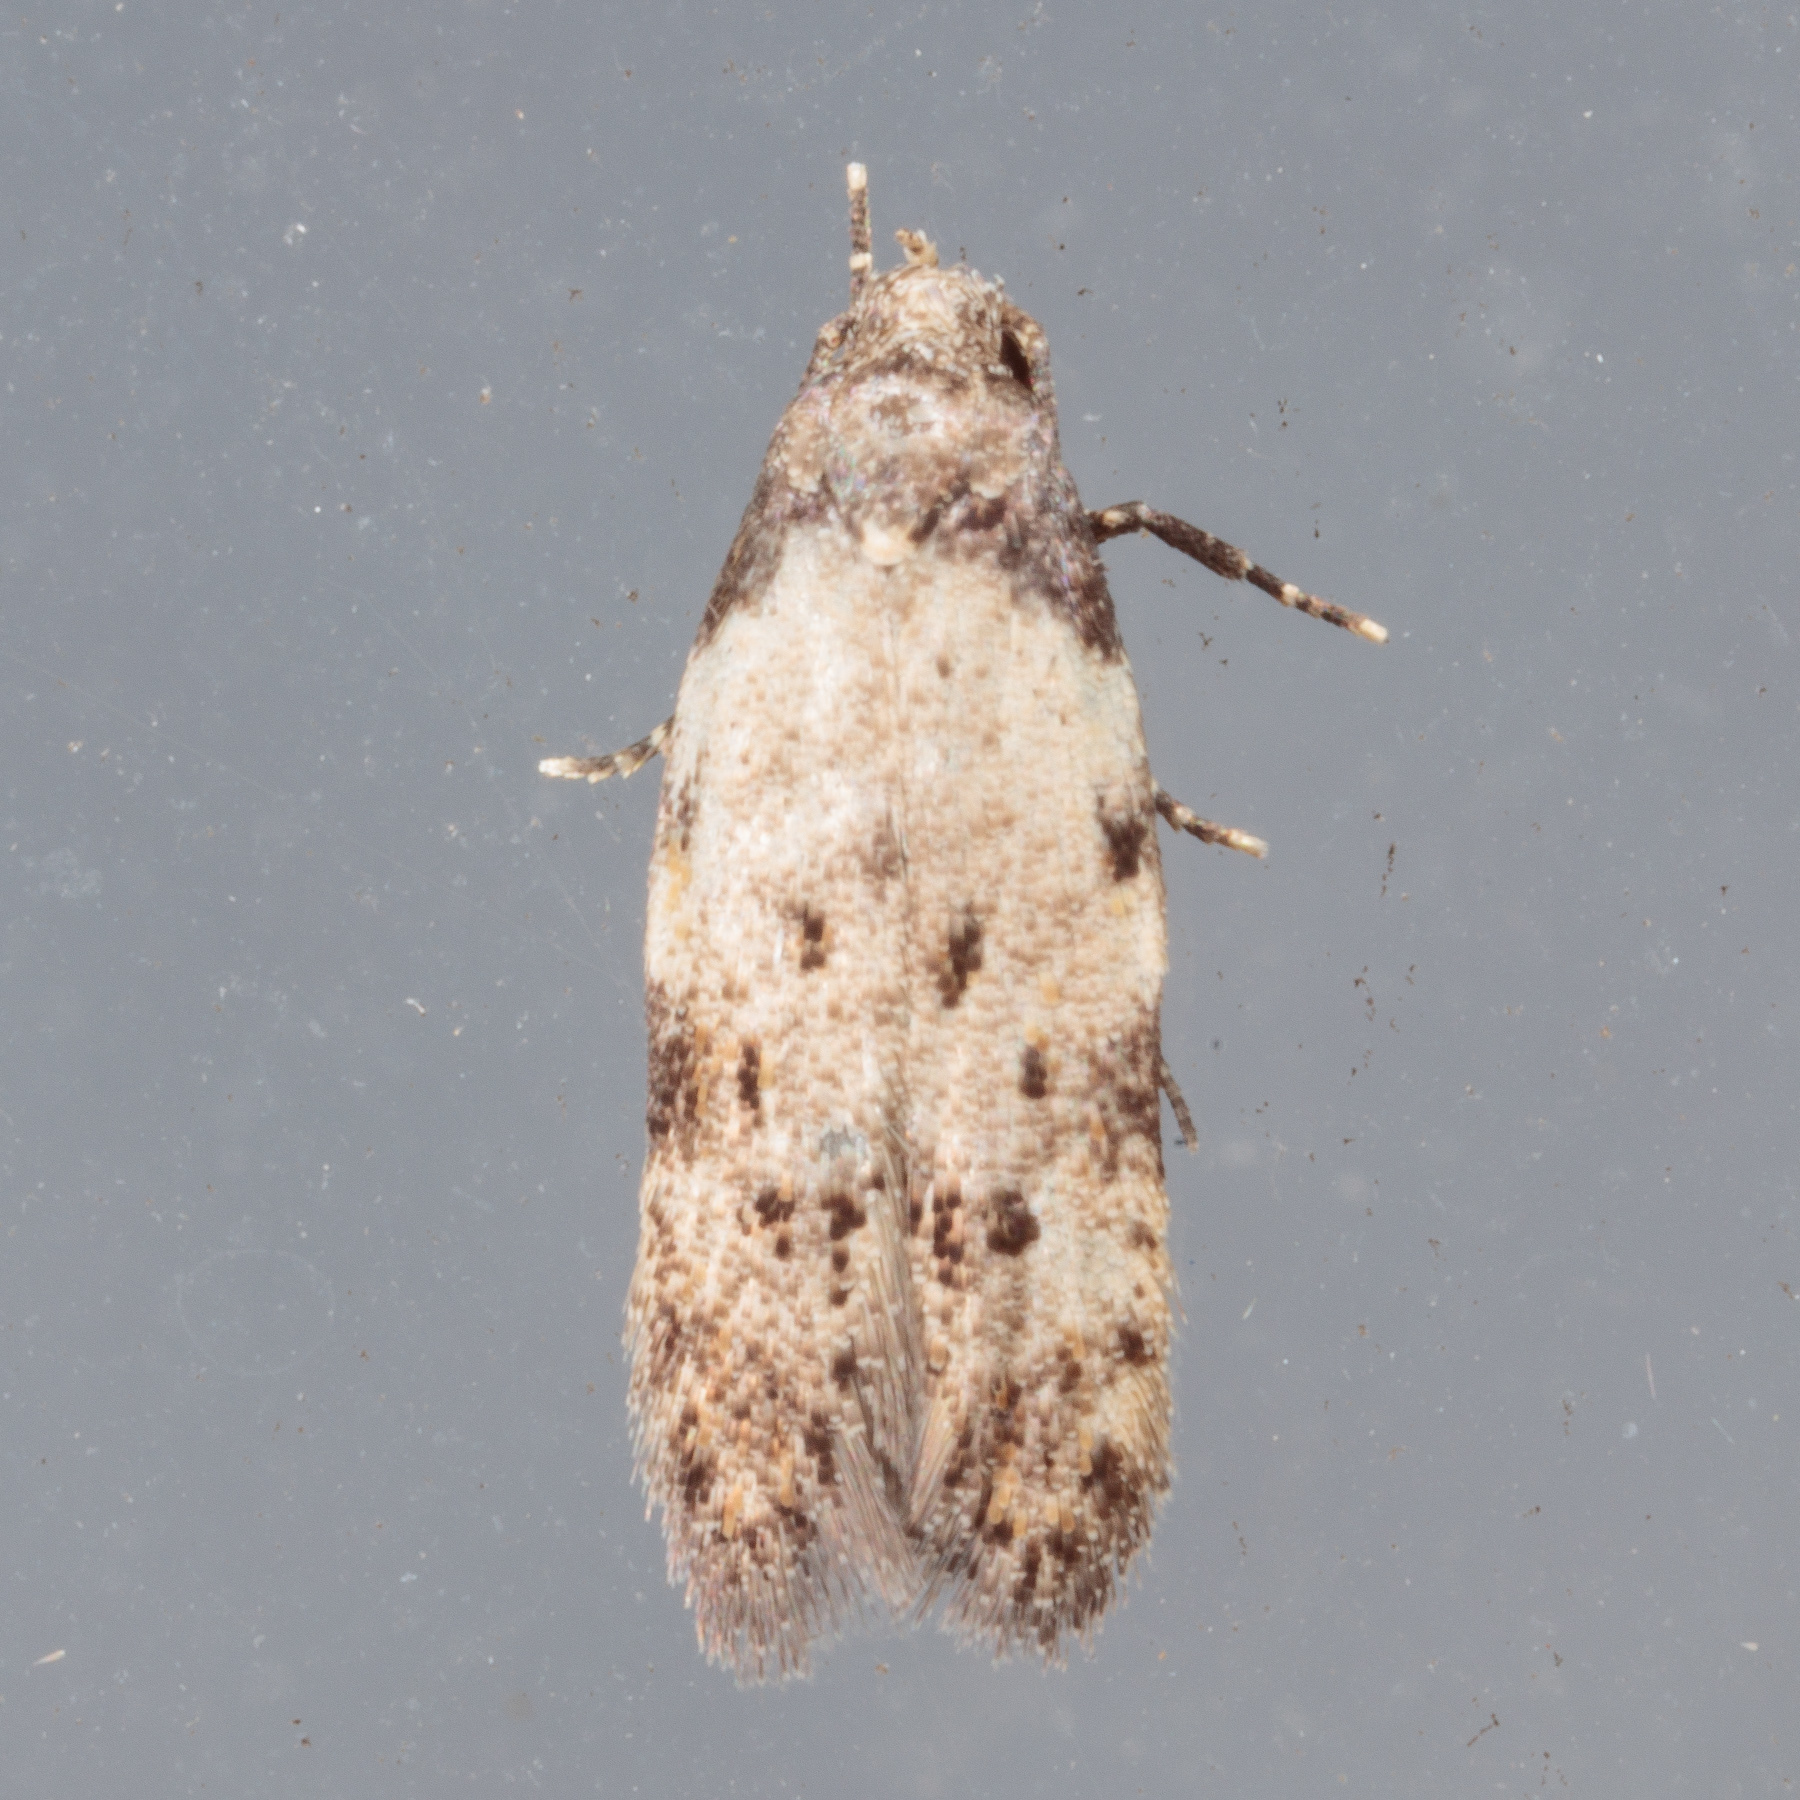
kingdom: Animalia
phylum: Arthropoda
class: Insecta
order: Lepidoptera
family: Autostichidae
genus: Taygete
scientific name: Taygete attributella
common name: Triangle-marked twirler moth
